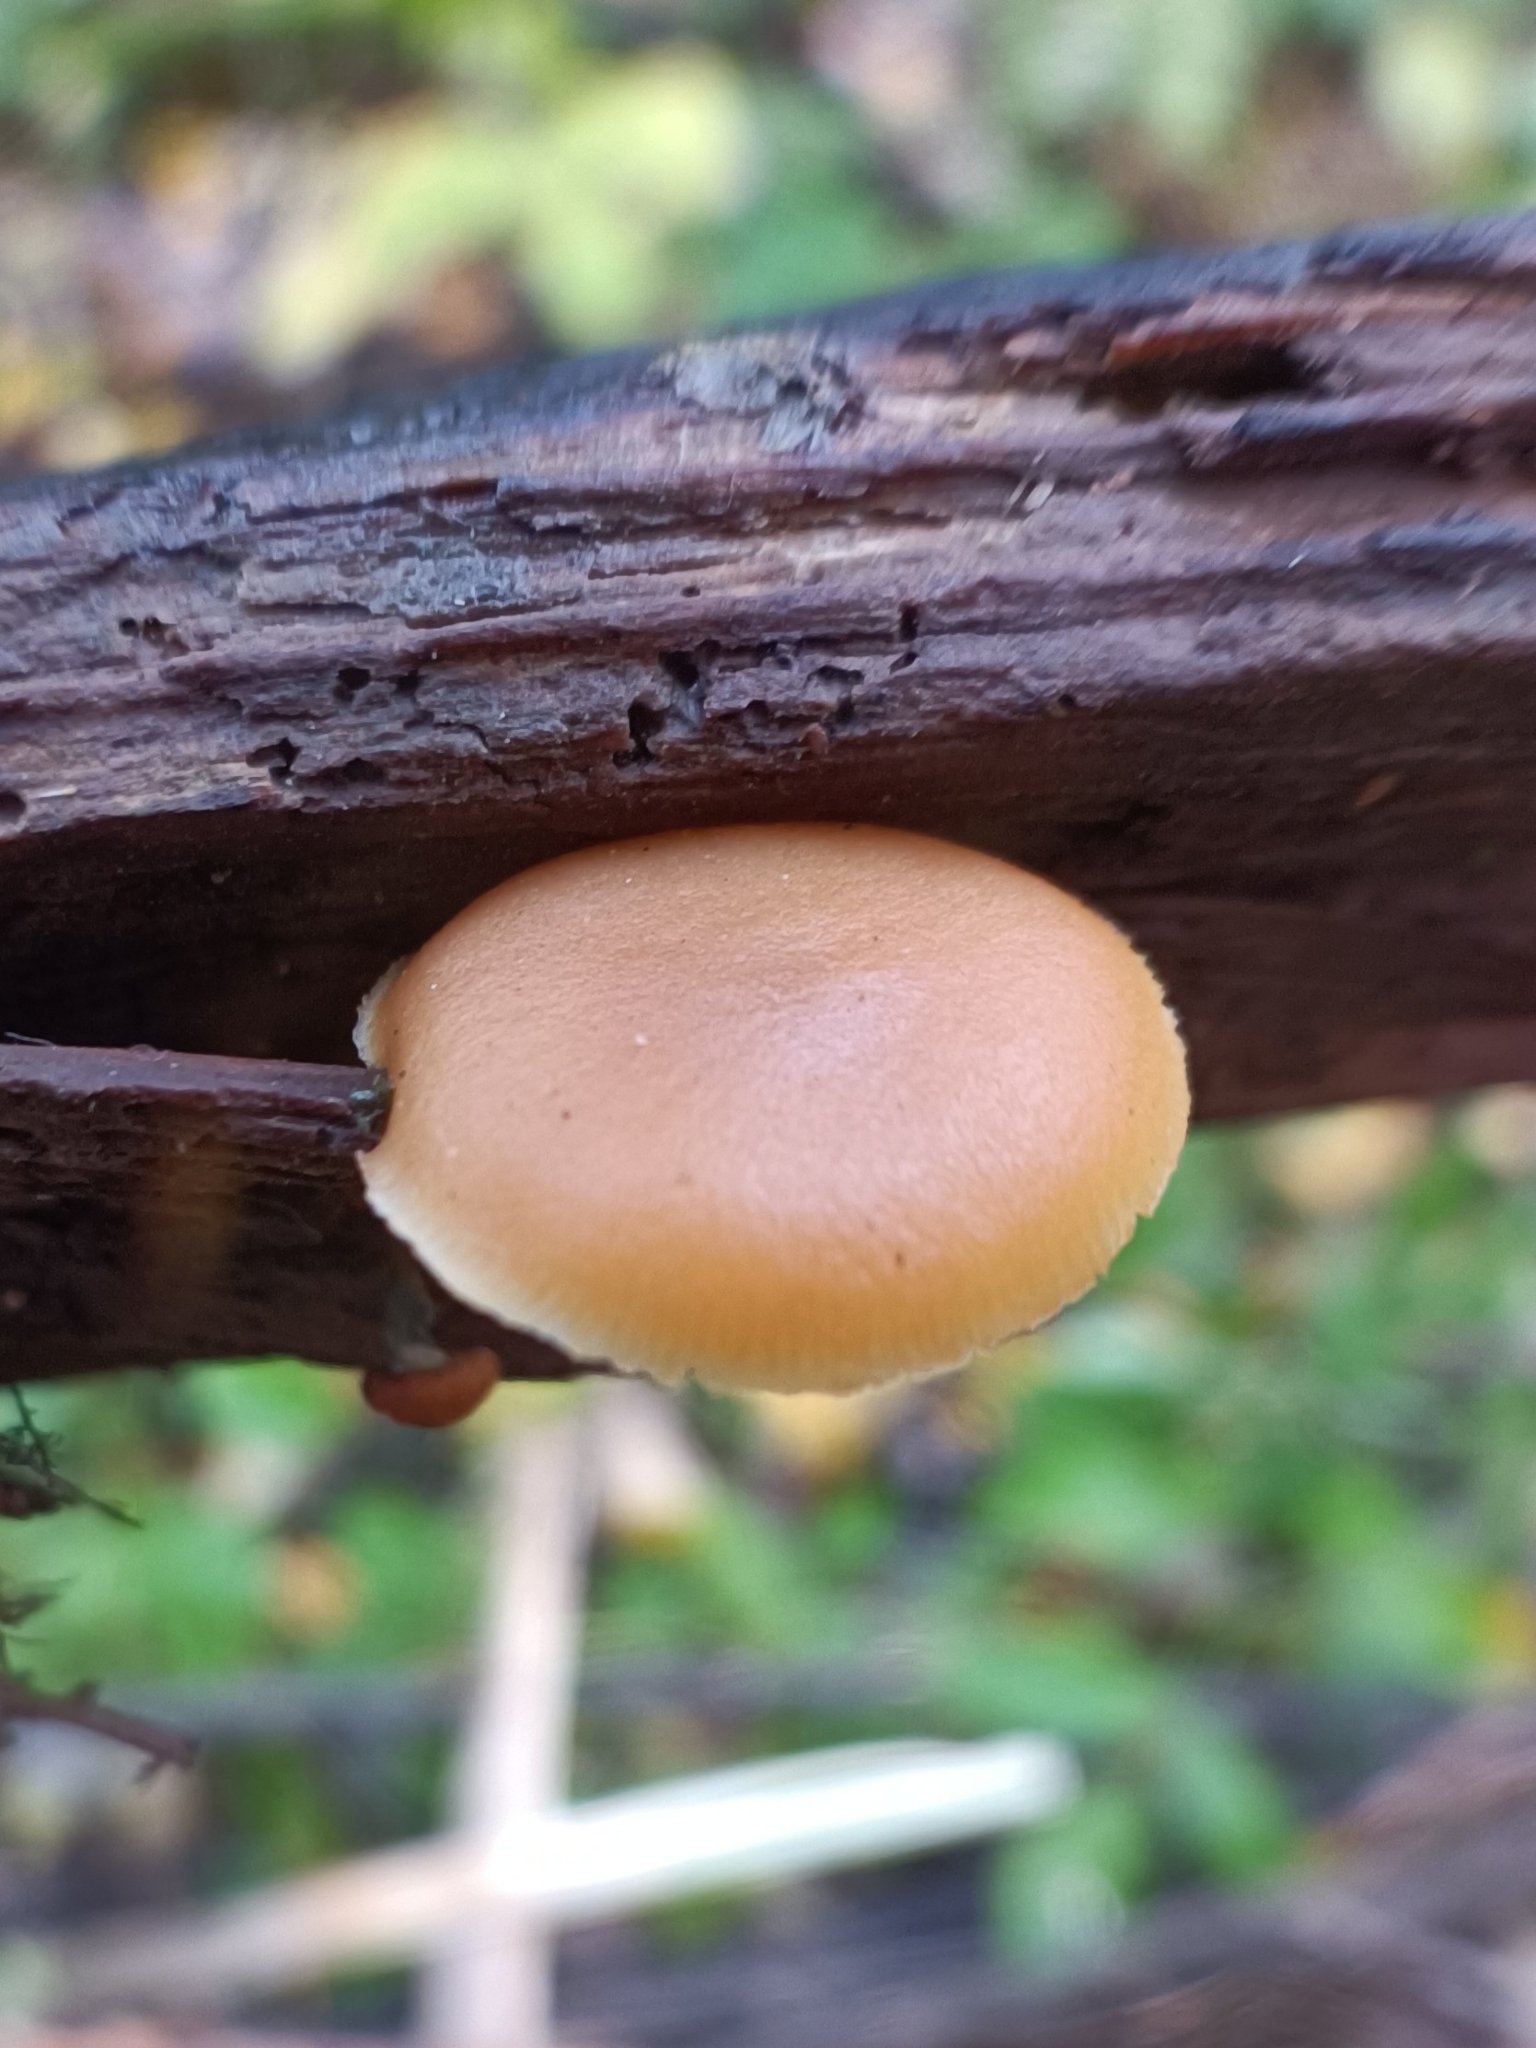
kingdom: Fungi
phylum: Basidiomycota
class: Agaricomycetes
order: Agaricales
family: Hymenogastraceae
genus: Galerina
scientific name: Galerina marginata
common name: Funeral bell
